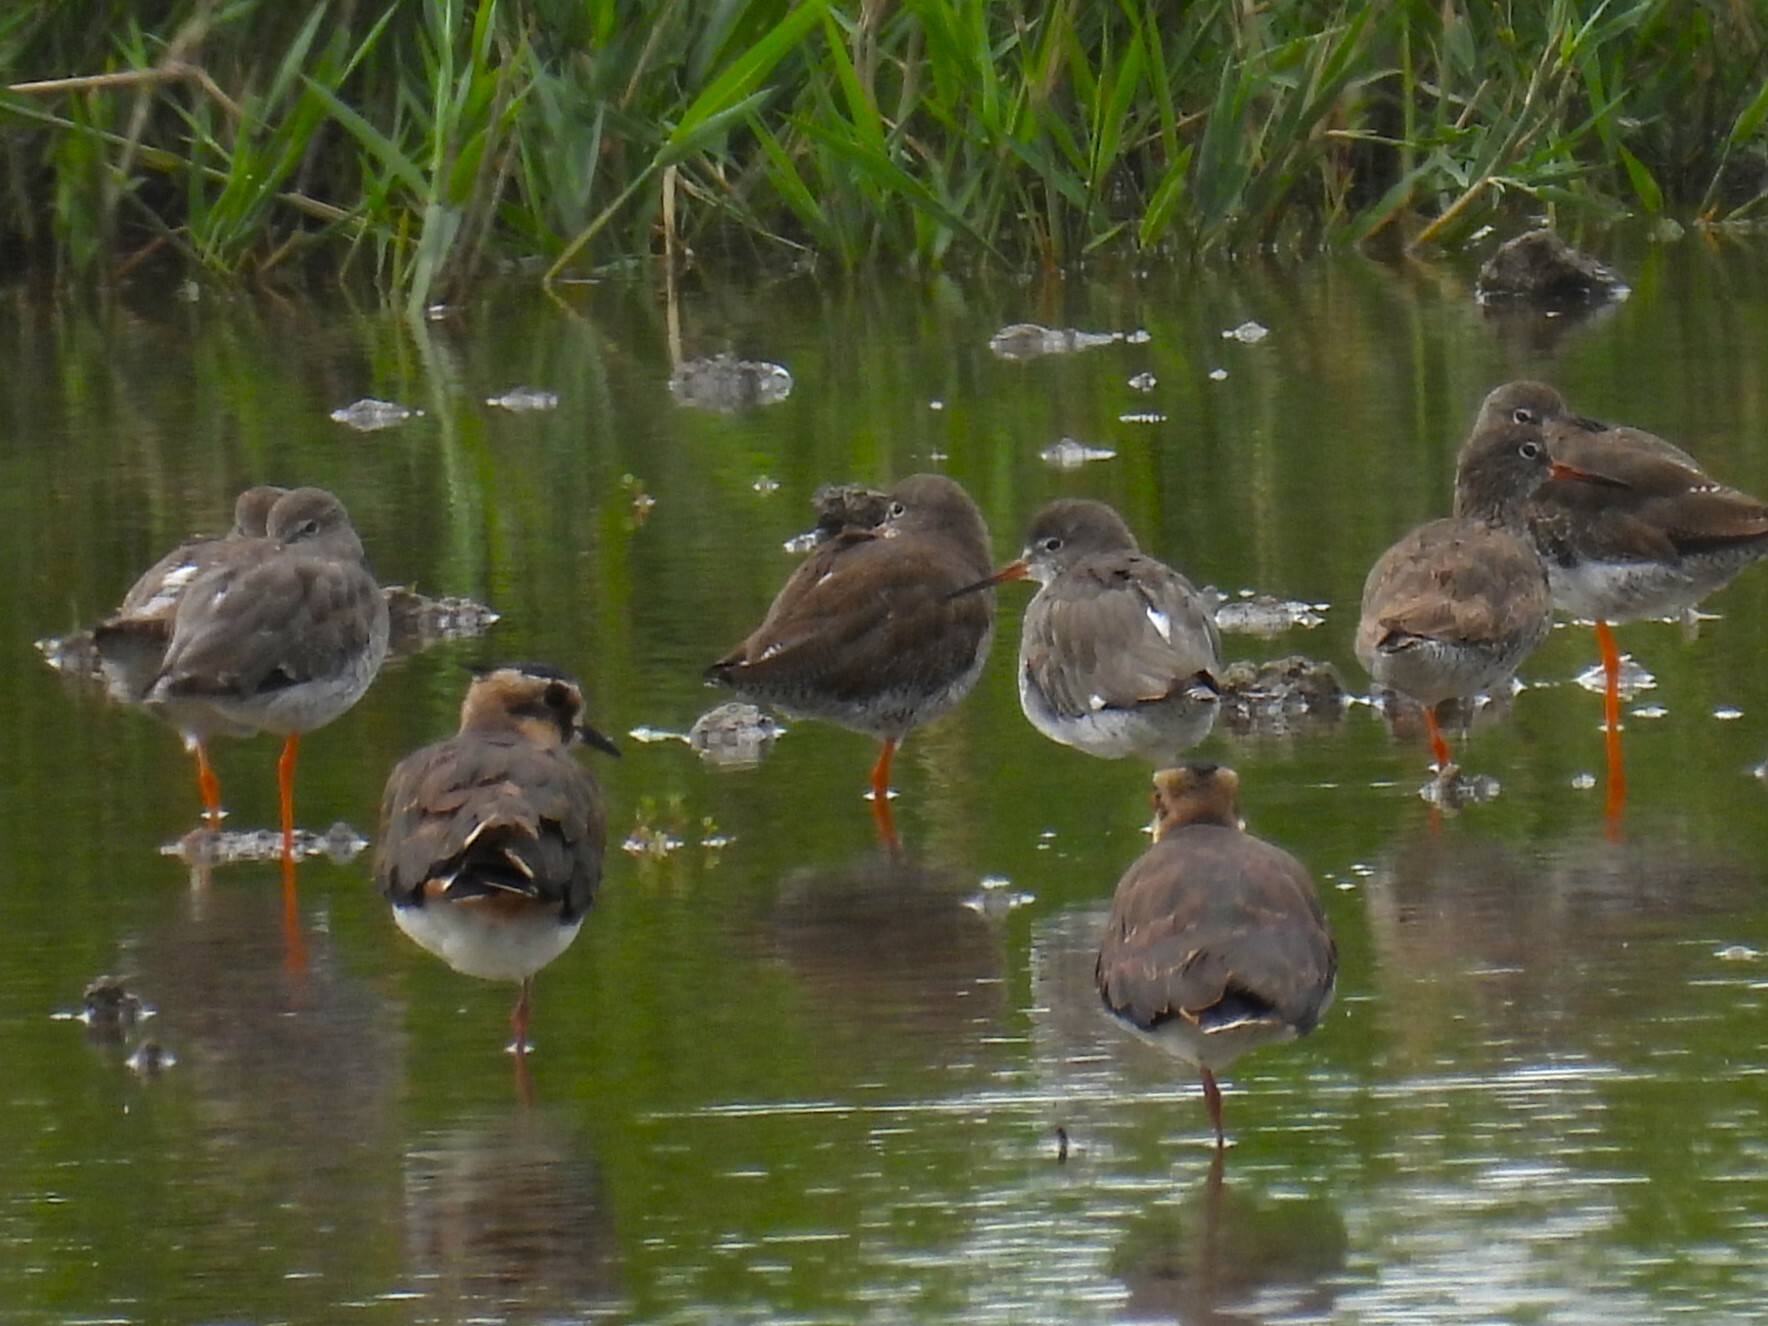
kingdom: Animalia
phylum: Chordata
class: Aves
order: Charadriiformes
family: Scolopacidae
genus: Tringa
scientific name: Tringa totanus
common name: Common redshank
